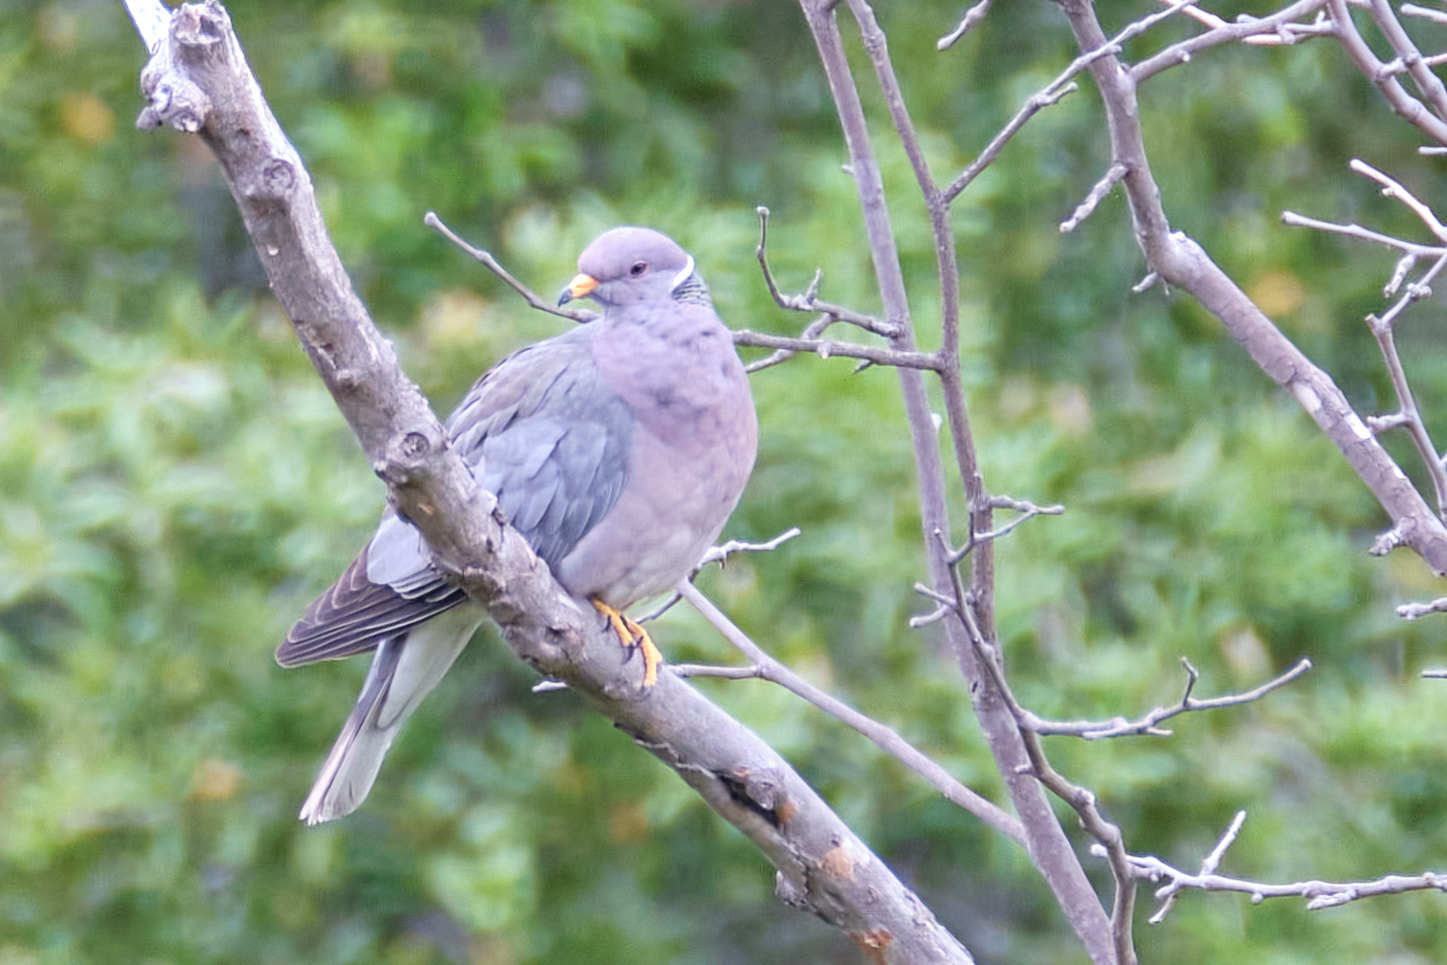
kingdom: Animalia
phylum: Chordata
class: Aves
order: Columbiformes
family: Columbidae
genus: Patagioenas
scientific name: Patagioenas fasciata
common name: Band-tailed pigeon
